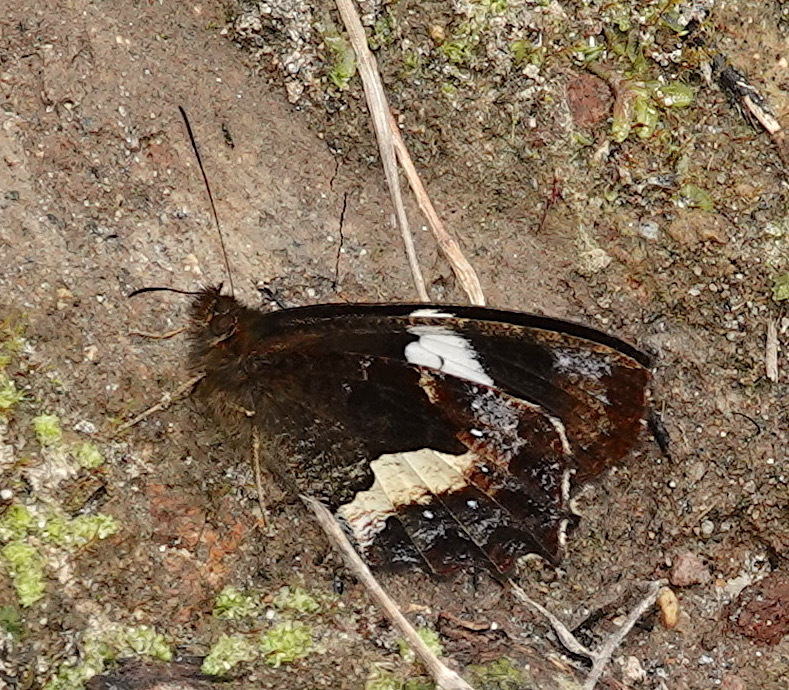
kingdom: Animalia
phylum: Arthropoda
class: Insecta
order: Lepidoptera
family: Nymphalidae
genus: Pedaliodes
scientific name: Pedaliodes phaedra
